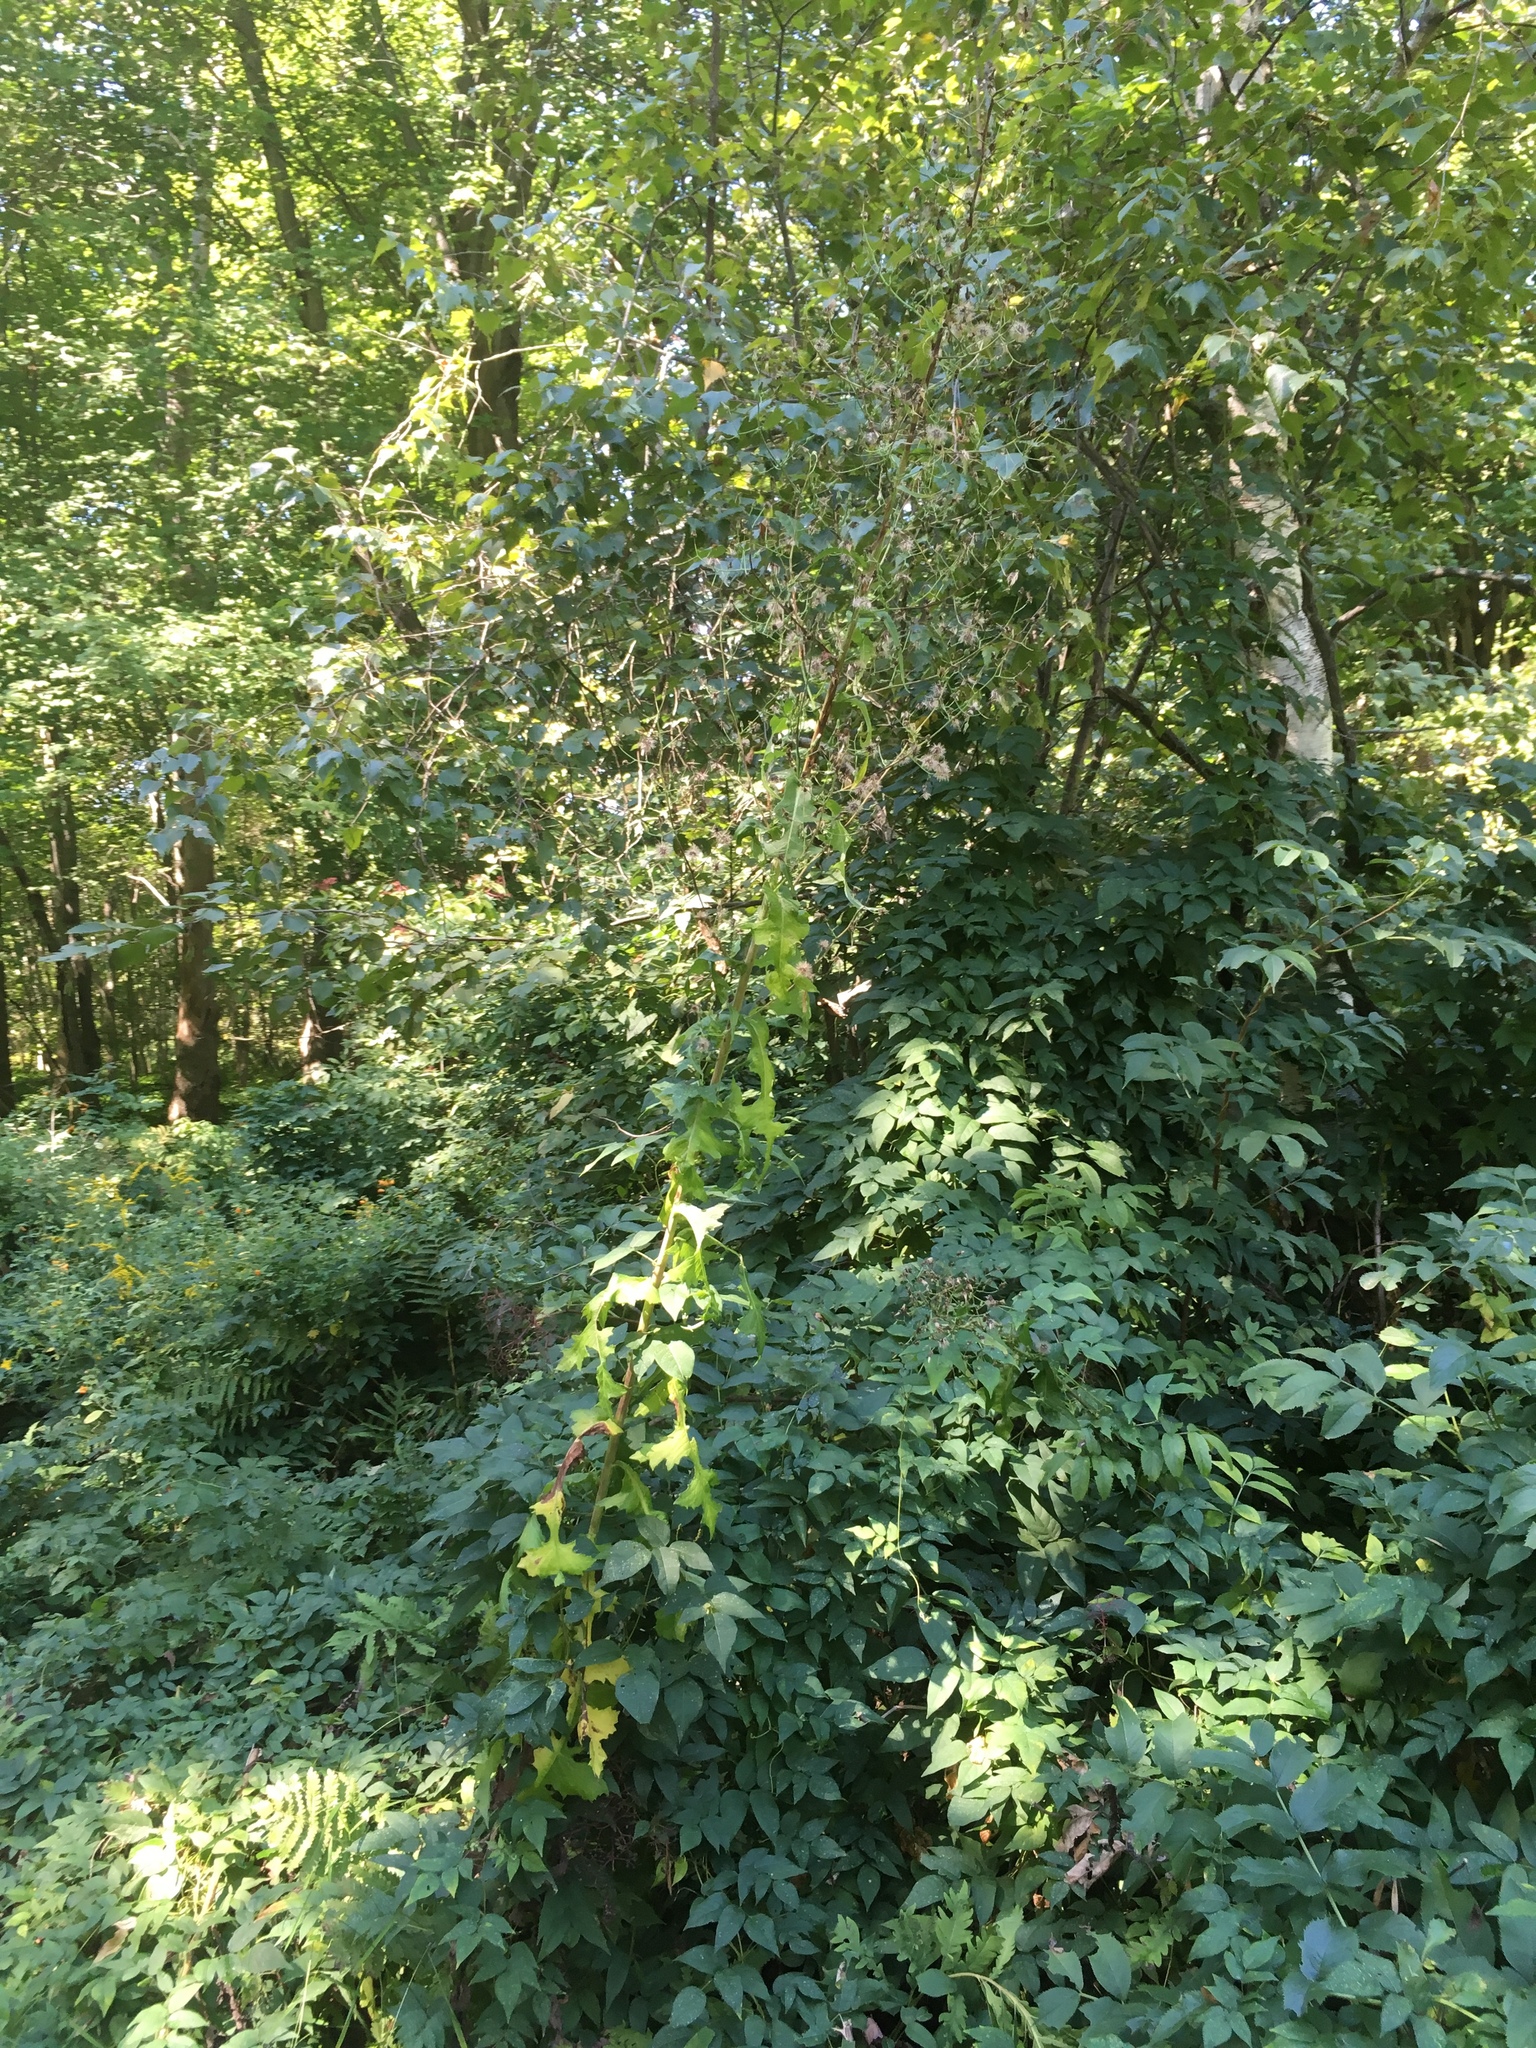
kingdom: Plantae
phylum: Tracheophyta
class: Magnoliopsida
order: Asterales
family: Asteraceae
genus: Lactuca
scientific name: Lactuca biennis
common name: Blue wood lettuce
